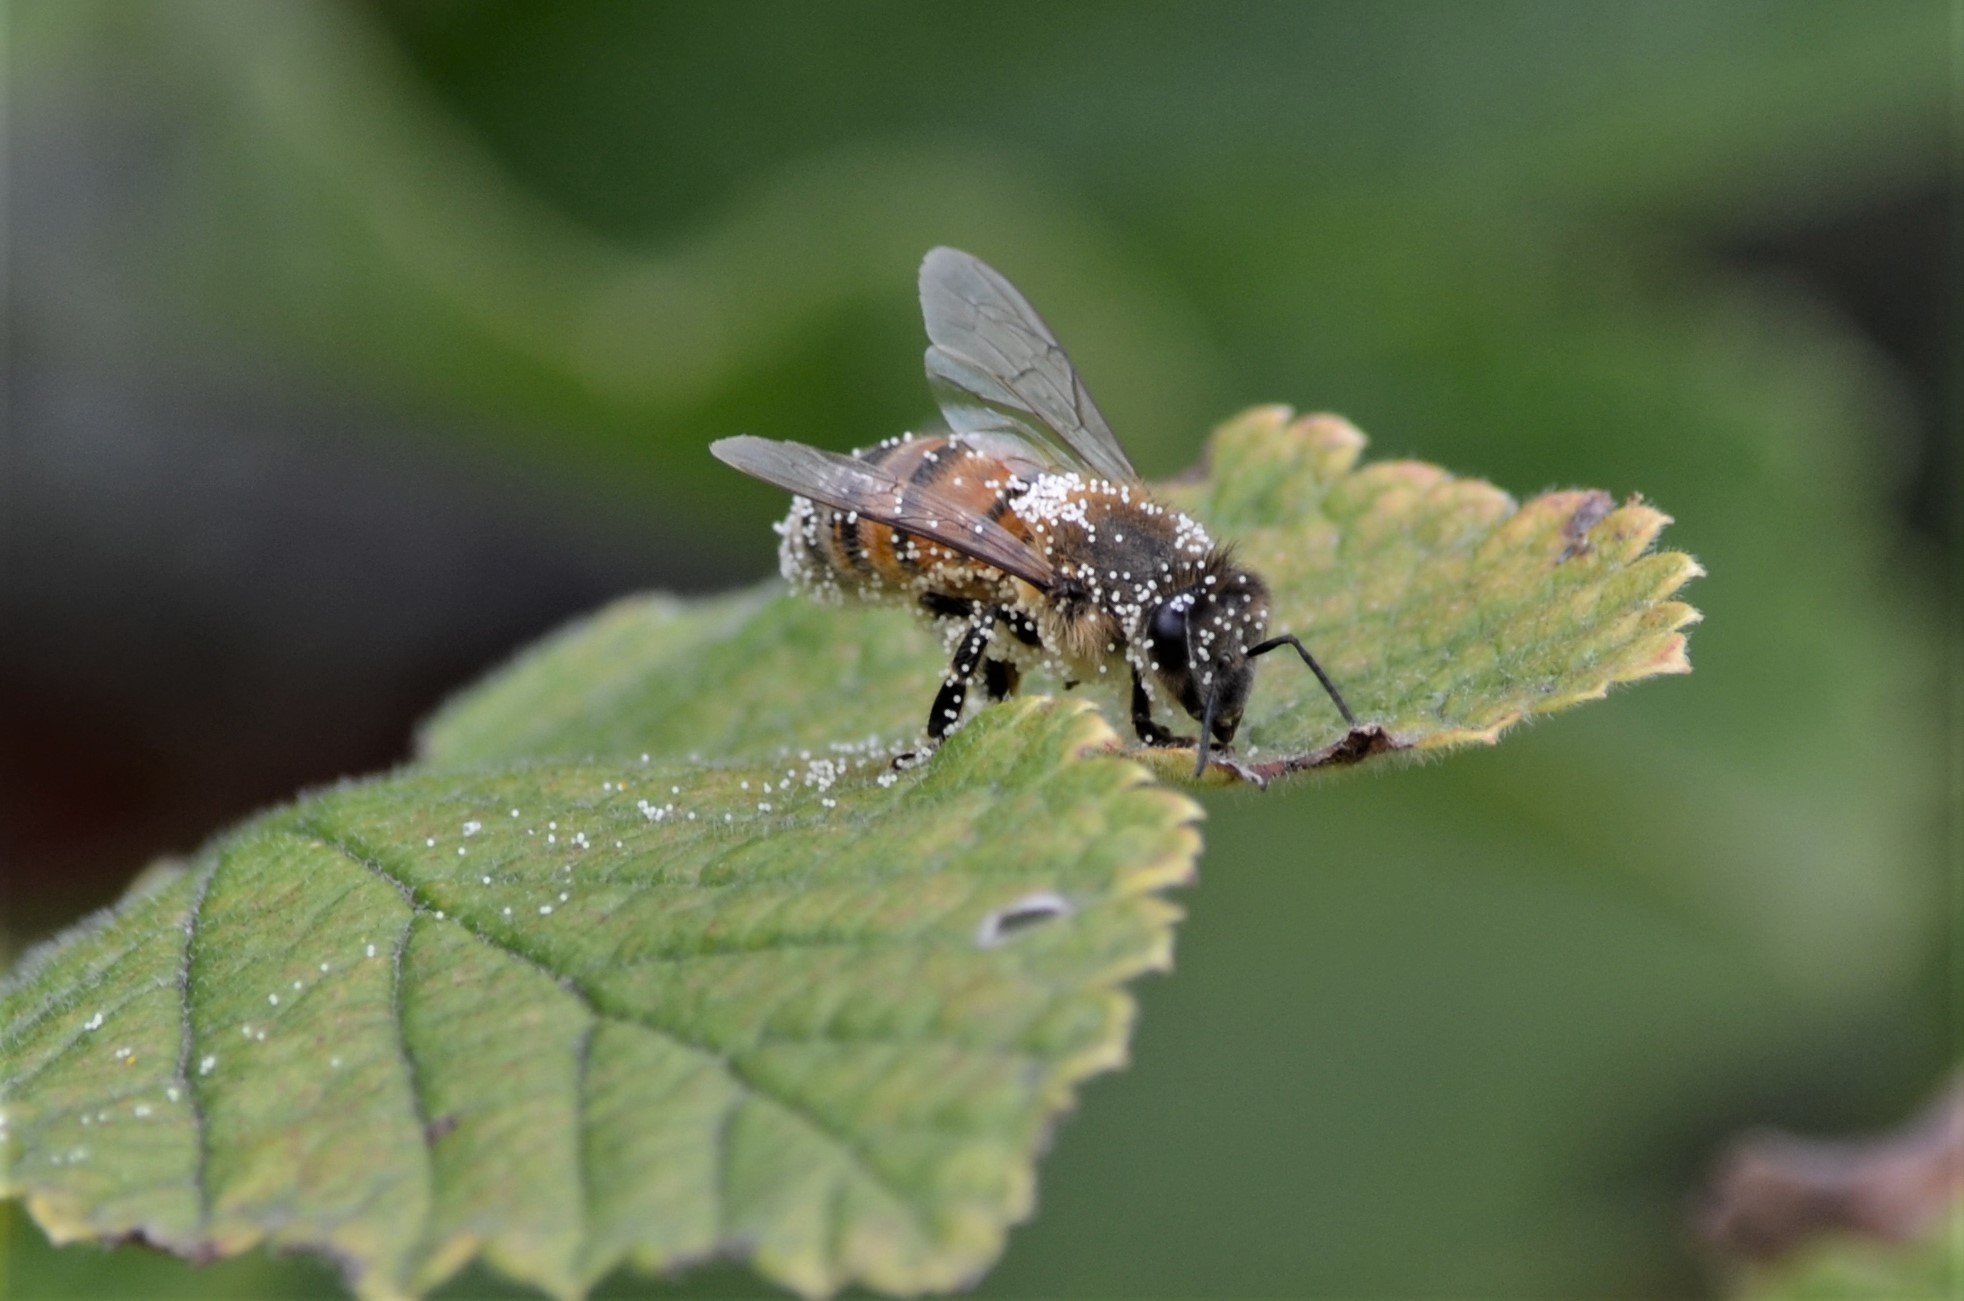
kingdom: Animalia
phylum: Arthropoda
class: Insecta
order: Hymenoptera
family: Apidae
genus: Apis
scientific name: Apis mellifera
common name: Honey bee
